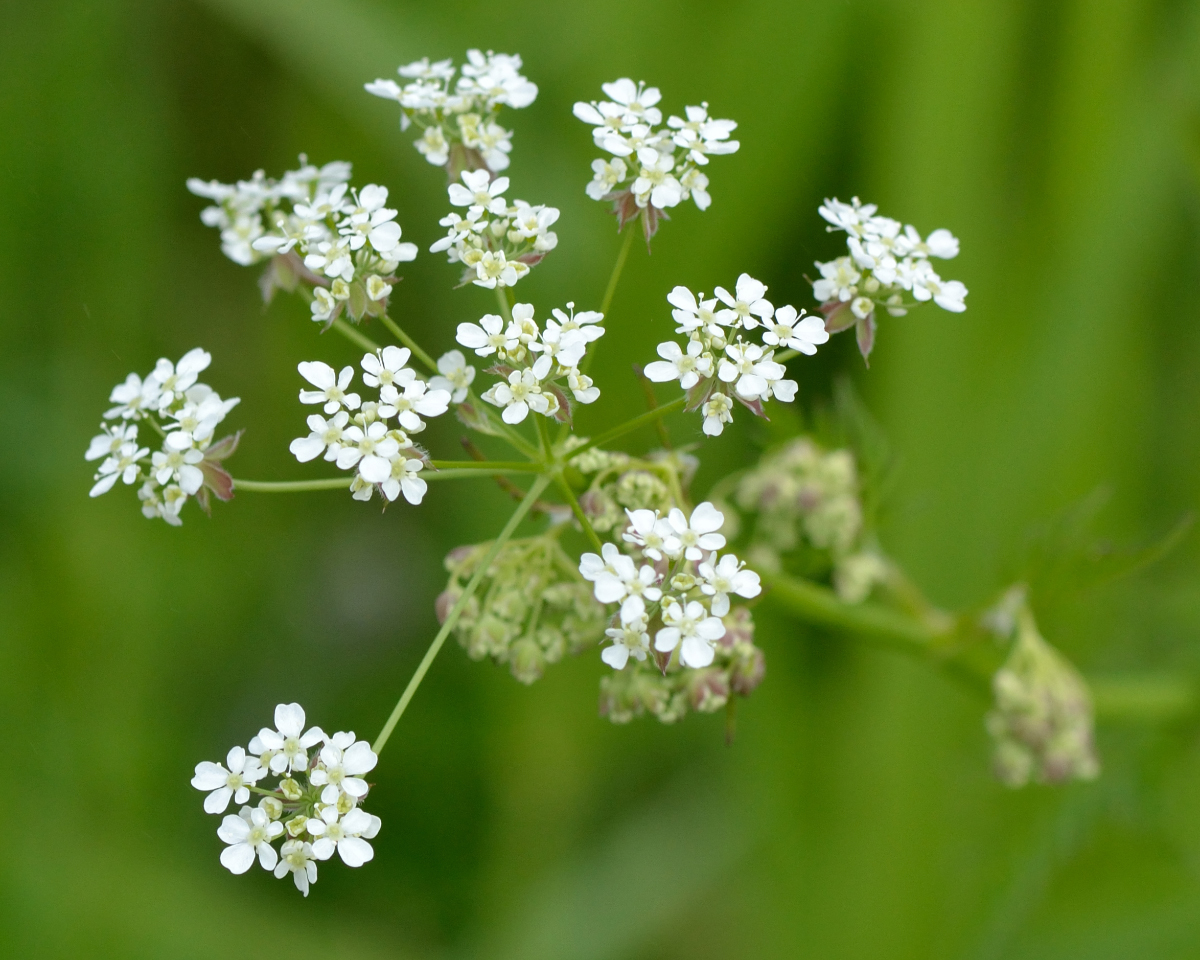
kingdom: Plantae
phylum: Tracheophyta
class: Magnoliopsida
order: Apiales
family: Apiaceae
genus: Anthriscus
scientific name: Anthriscus sylvestris
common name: Cow parsley
